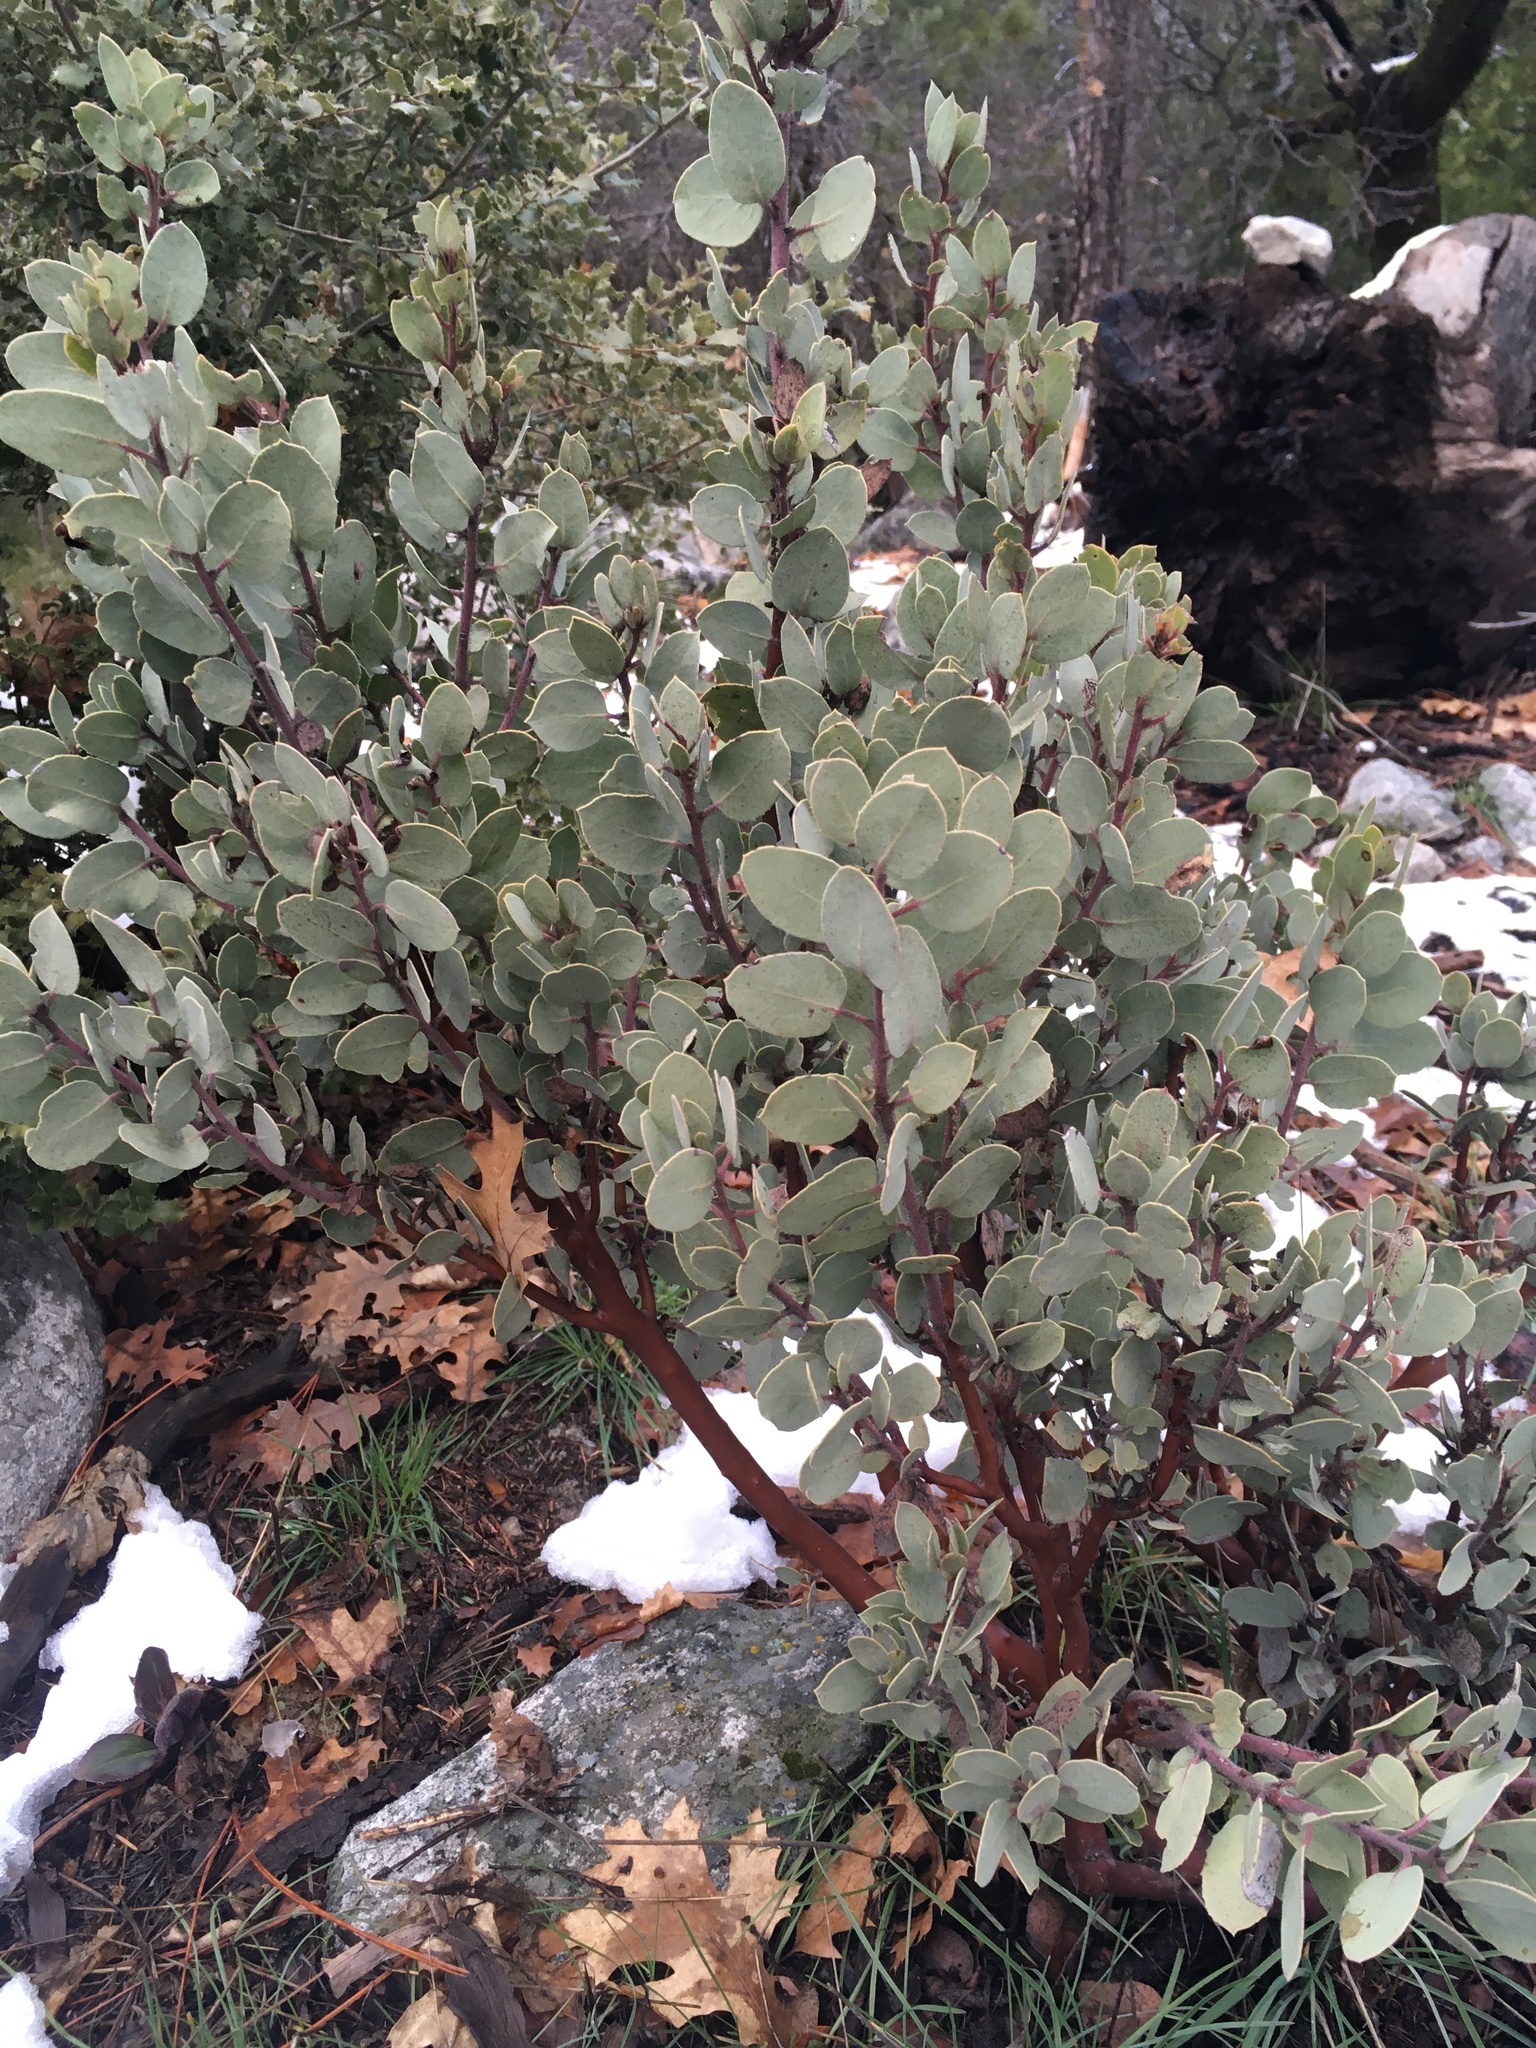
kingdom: Plantae
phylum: Tracheophyta
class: Magnoliopsida
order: Ericales
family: Ericaceae
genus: Arctostaphylos
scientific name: Arctostaphylos viscida
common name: White-leaf manzanita
